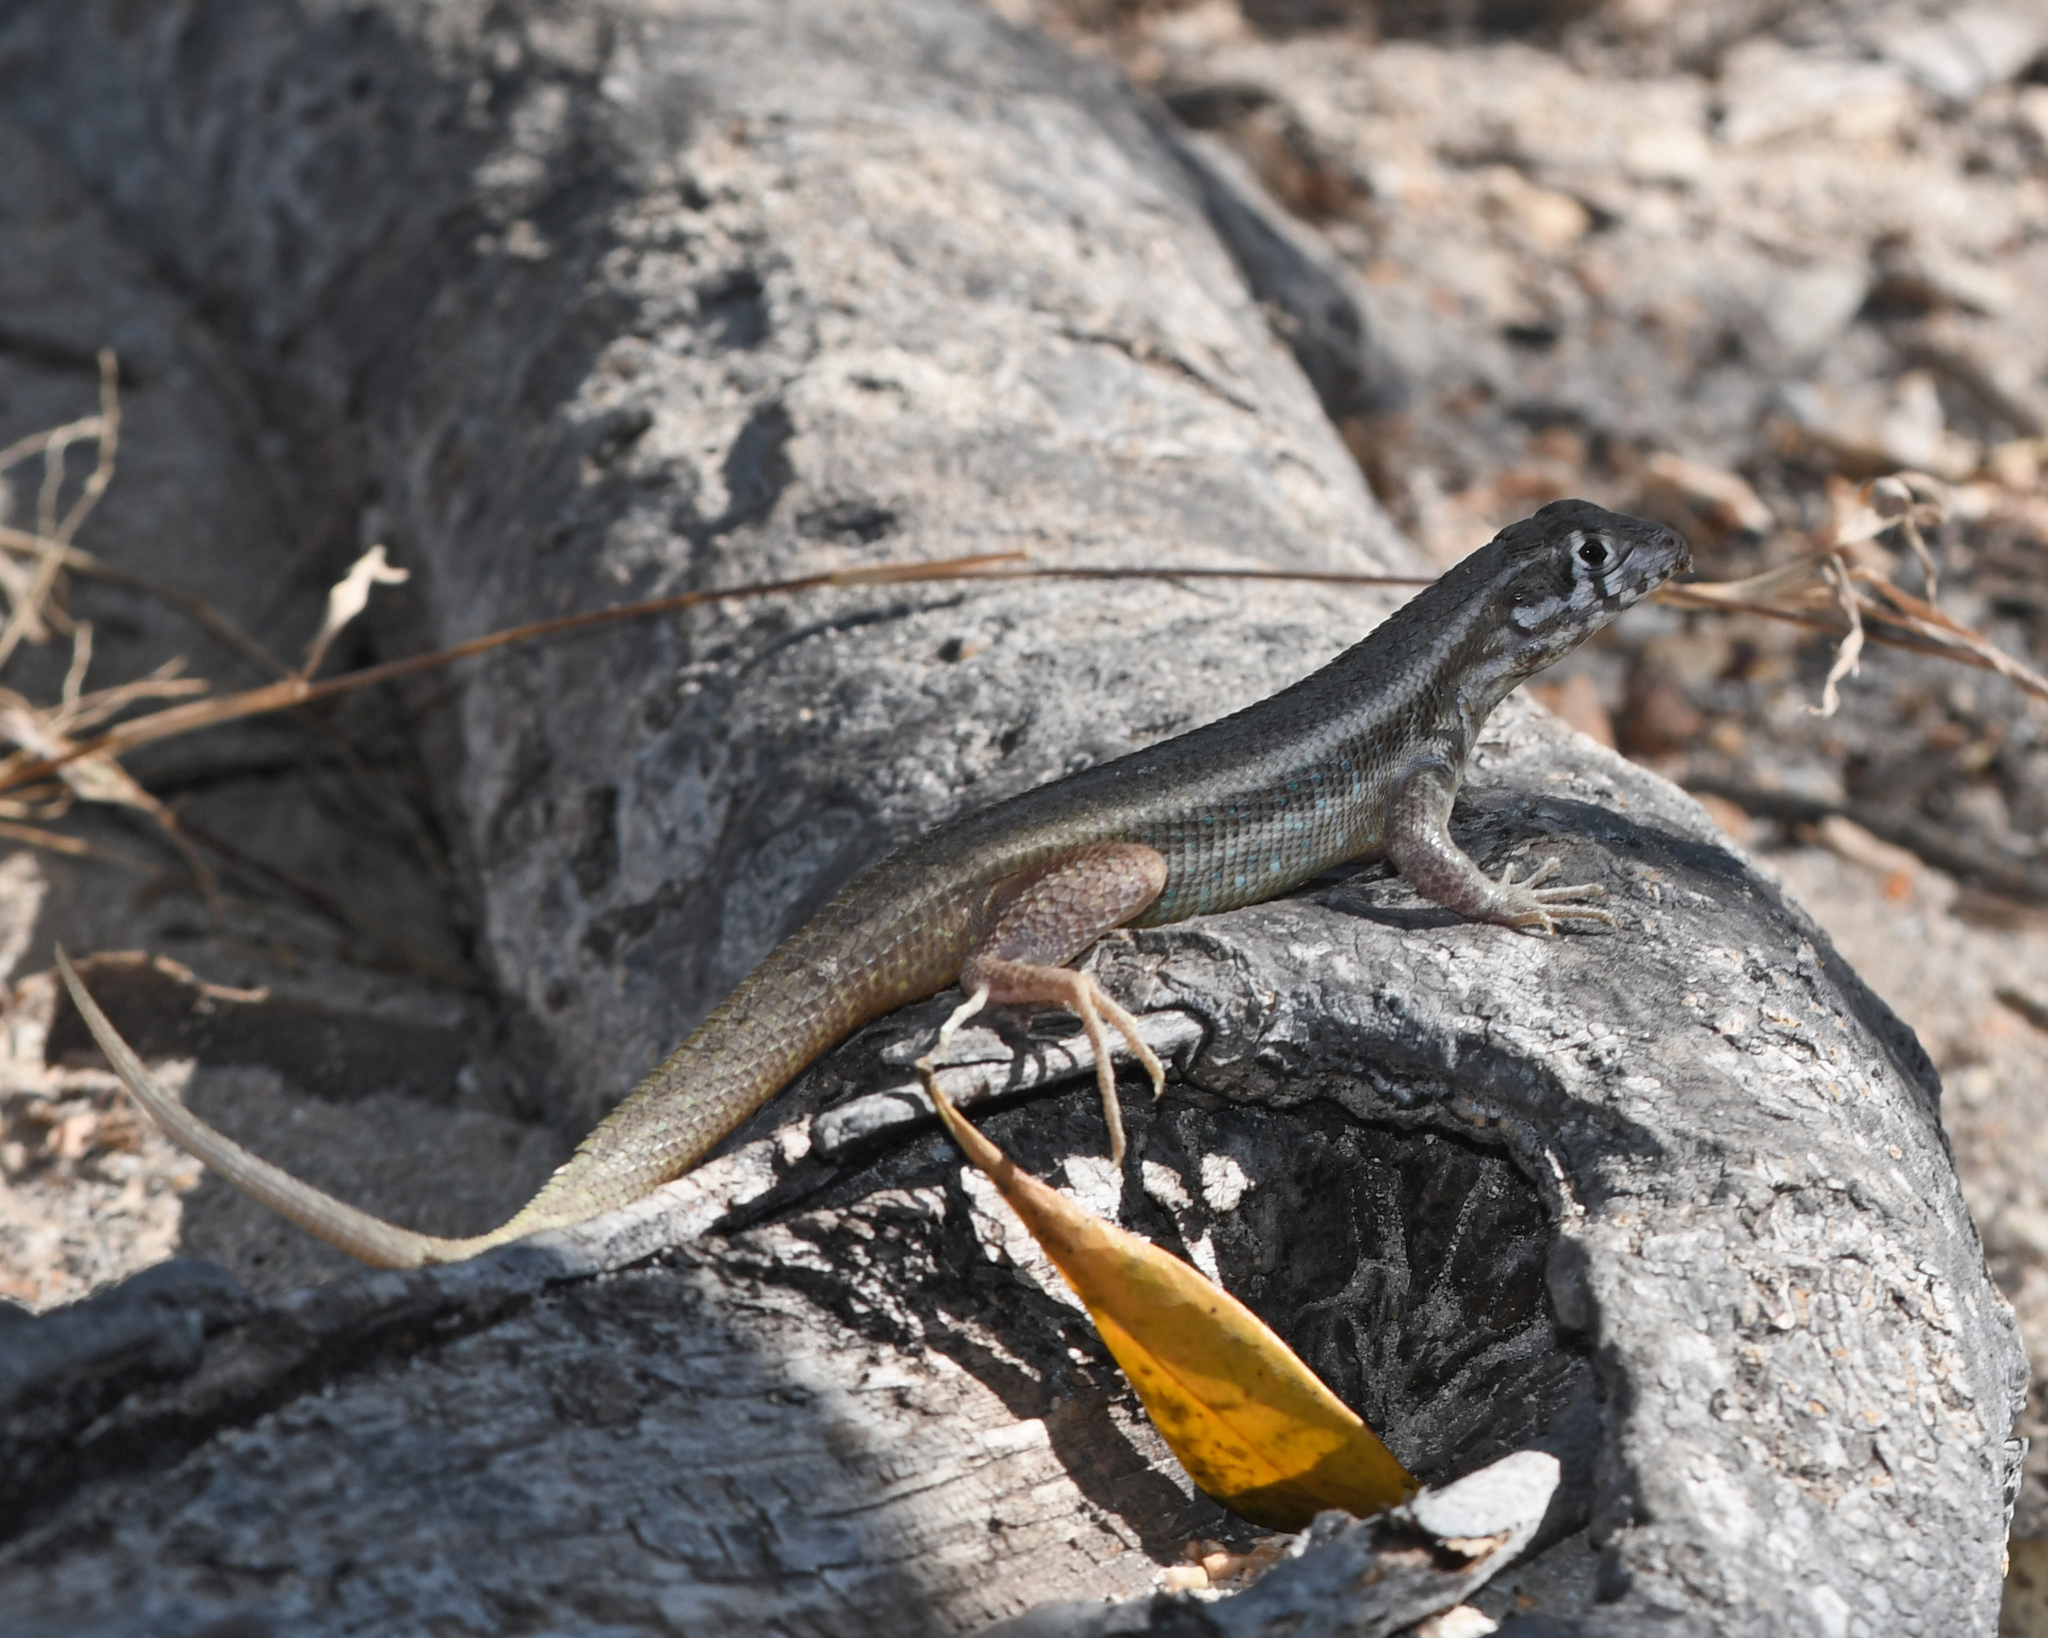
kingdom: Animalia
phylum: Chordata
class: Squamata
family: Leiocephalidae
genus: Leiocephalus
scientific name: Leiocephalus barahonensis
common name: Barahona curlytail lizard
